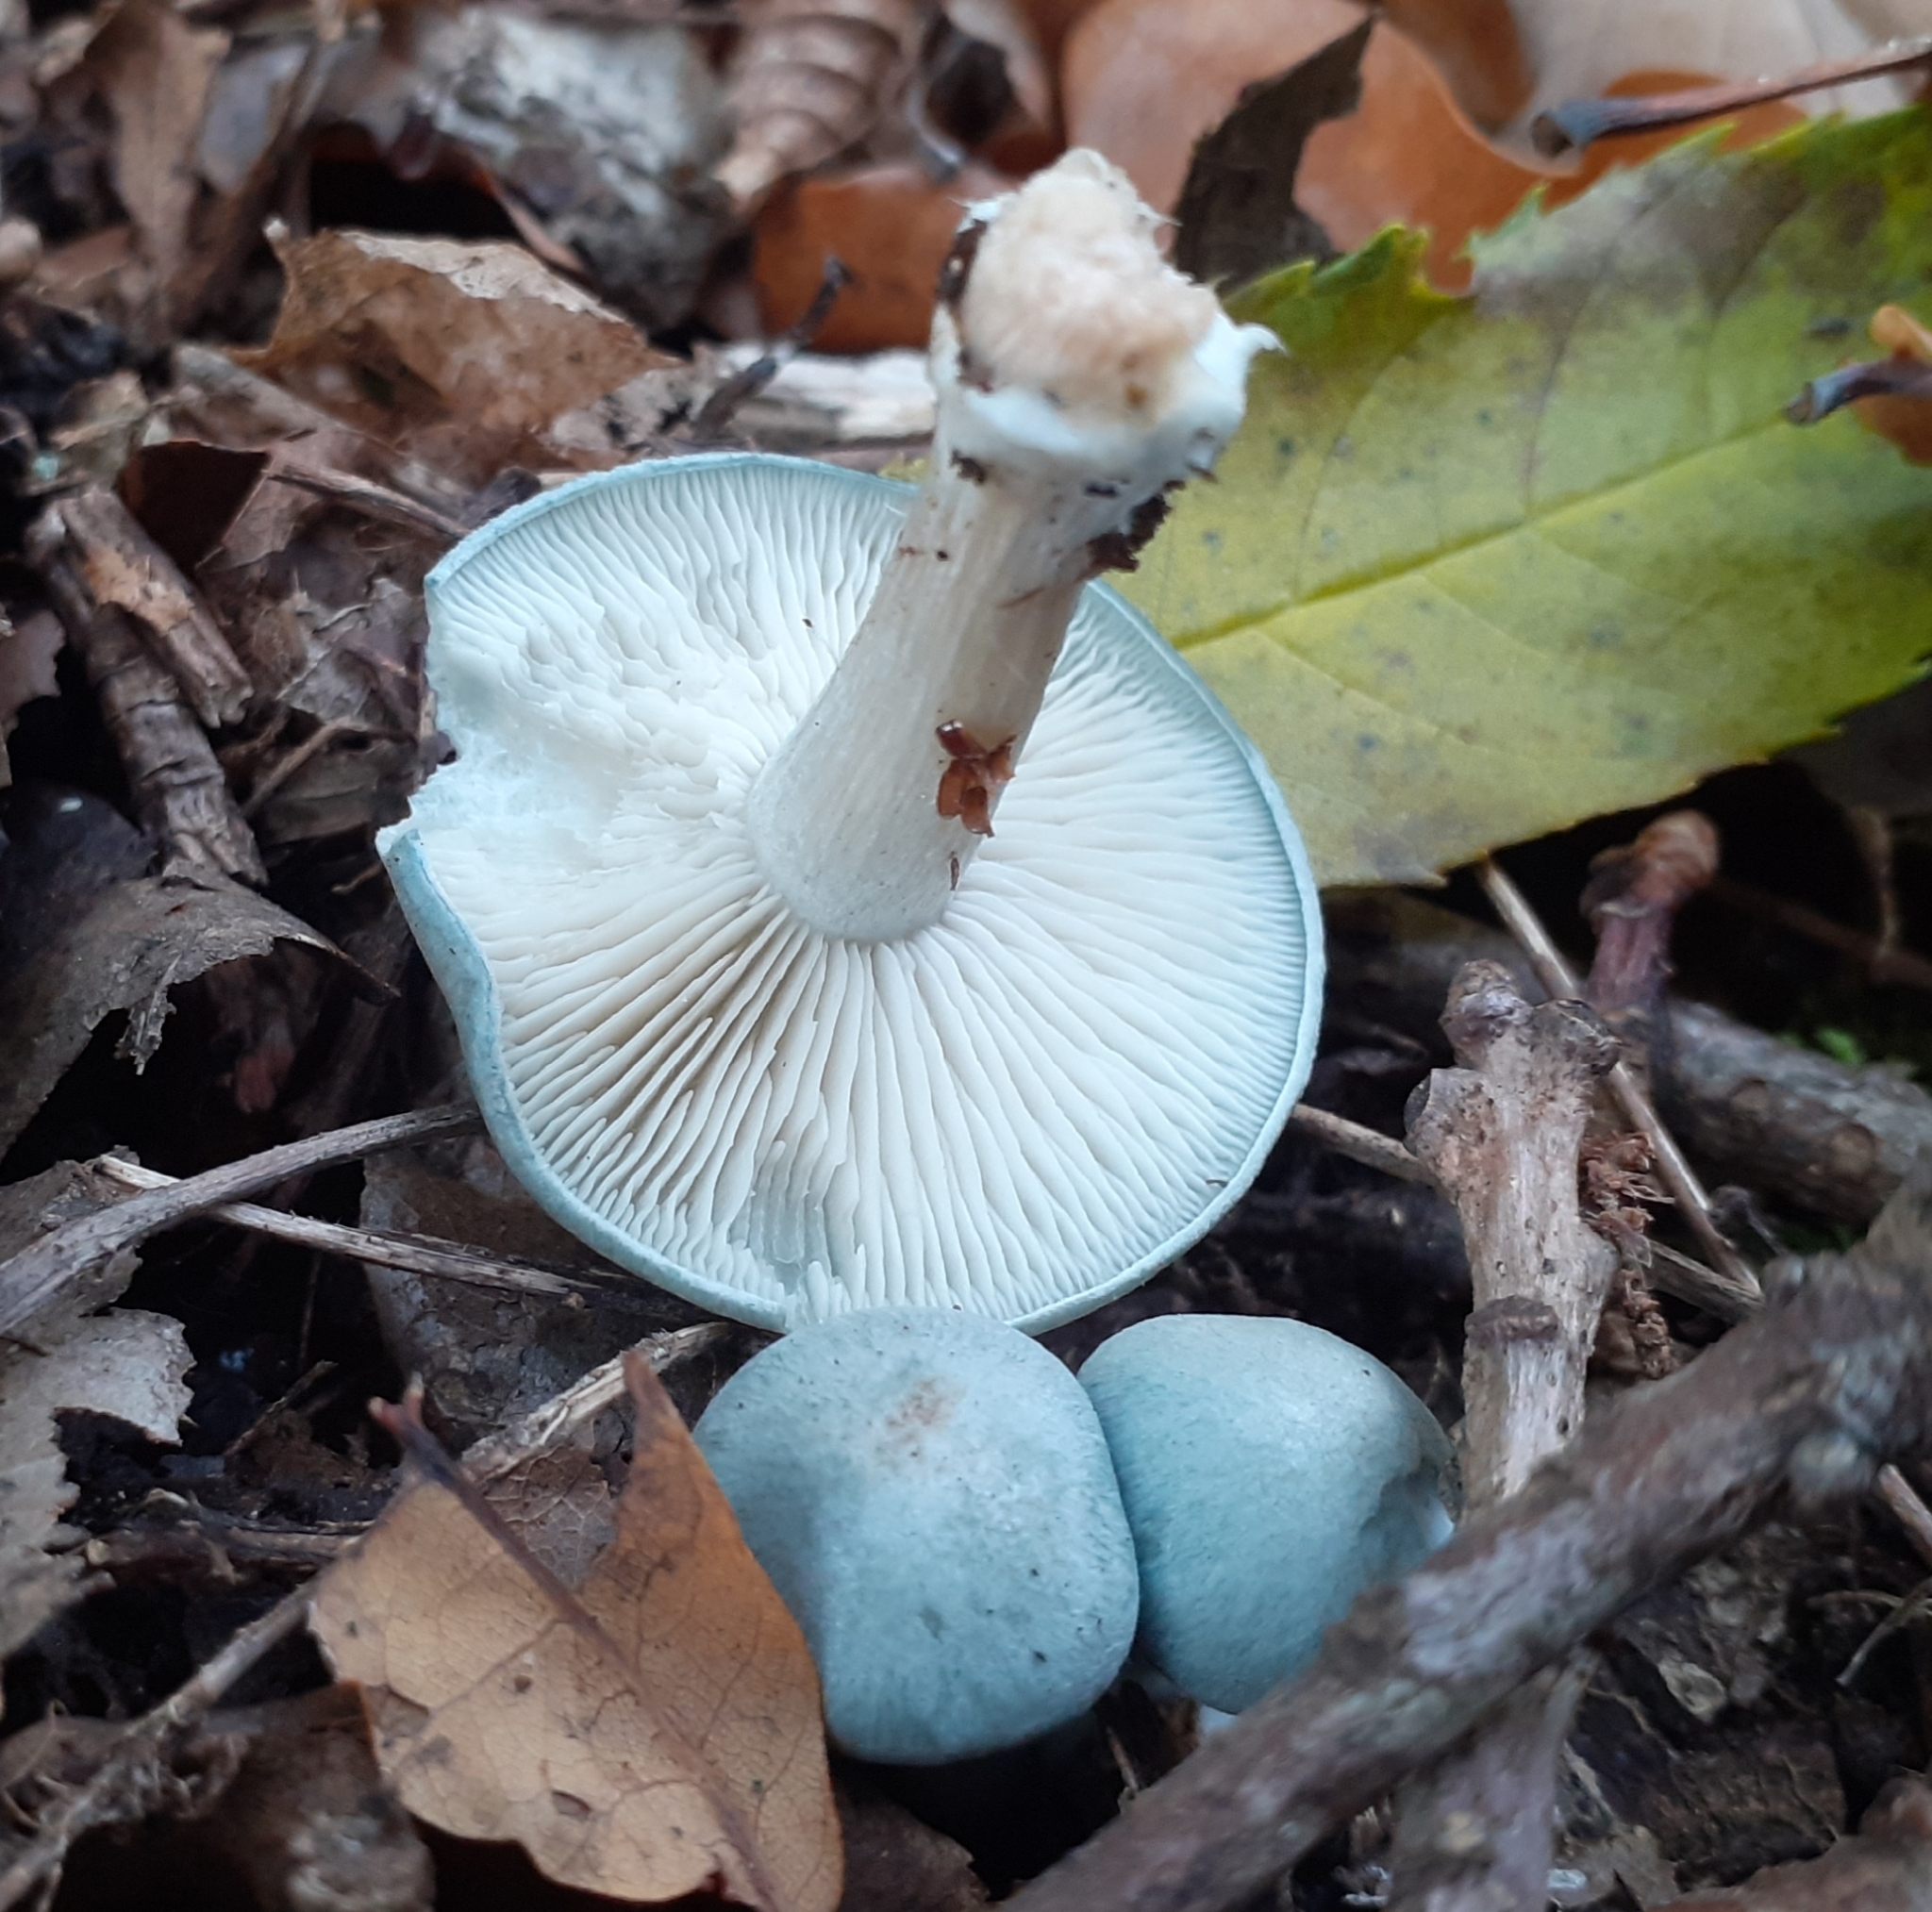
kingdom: Fungi
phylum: Basidiomycota
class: Agaricomycetes
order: Agaricales
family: Tricholomataceae
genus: Collybia
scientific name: Collybia
